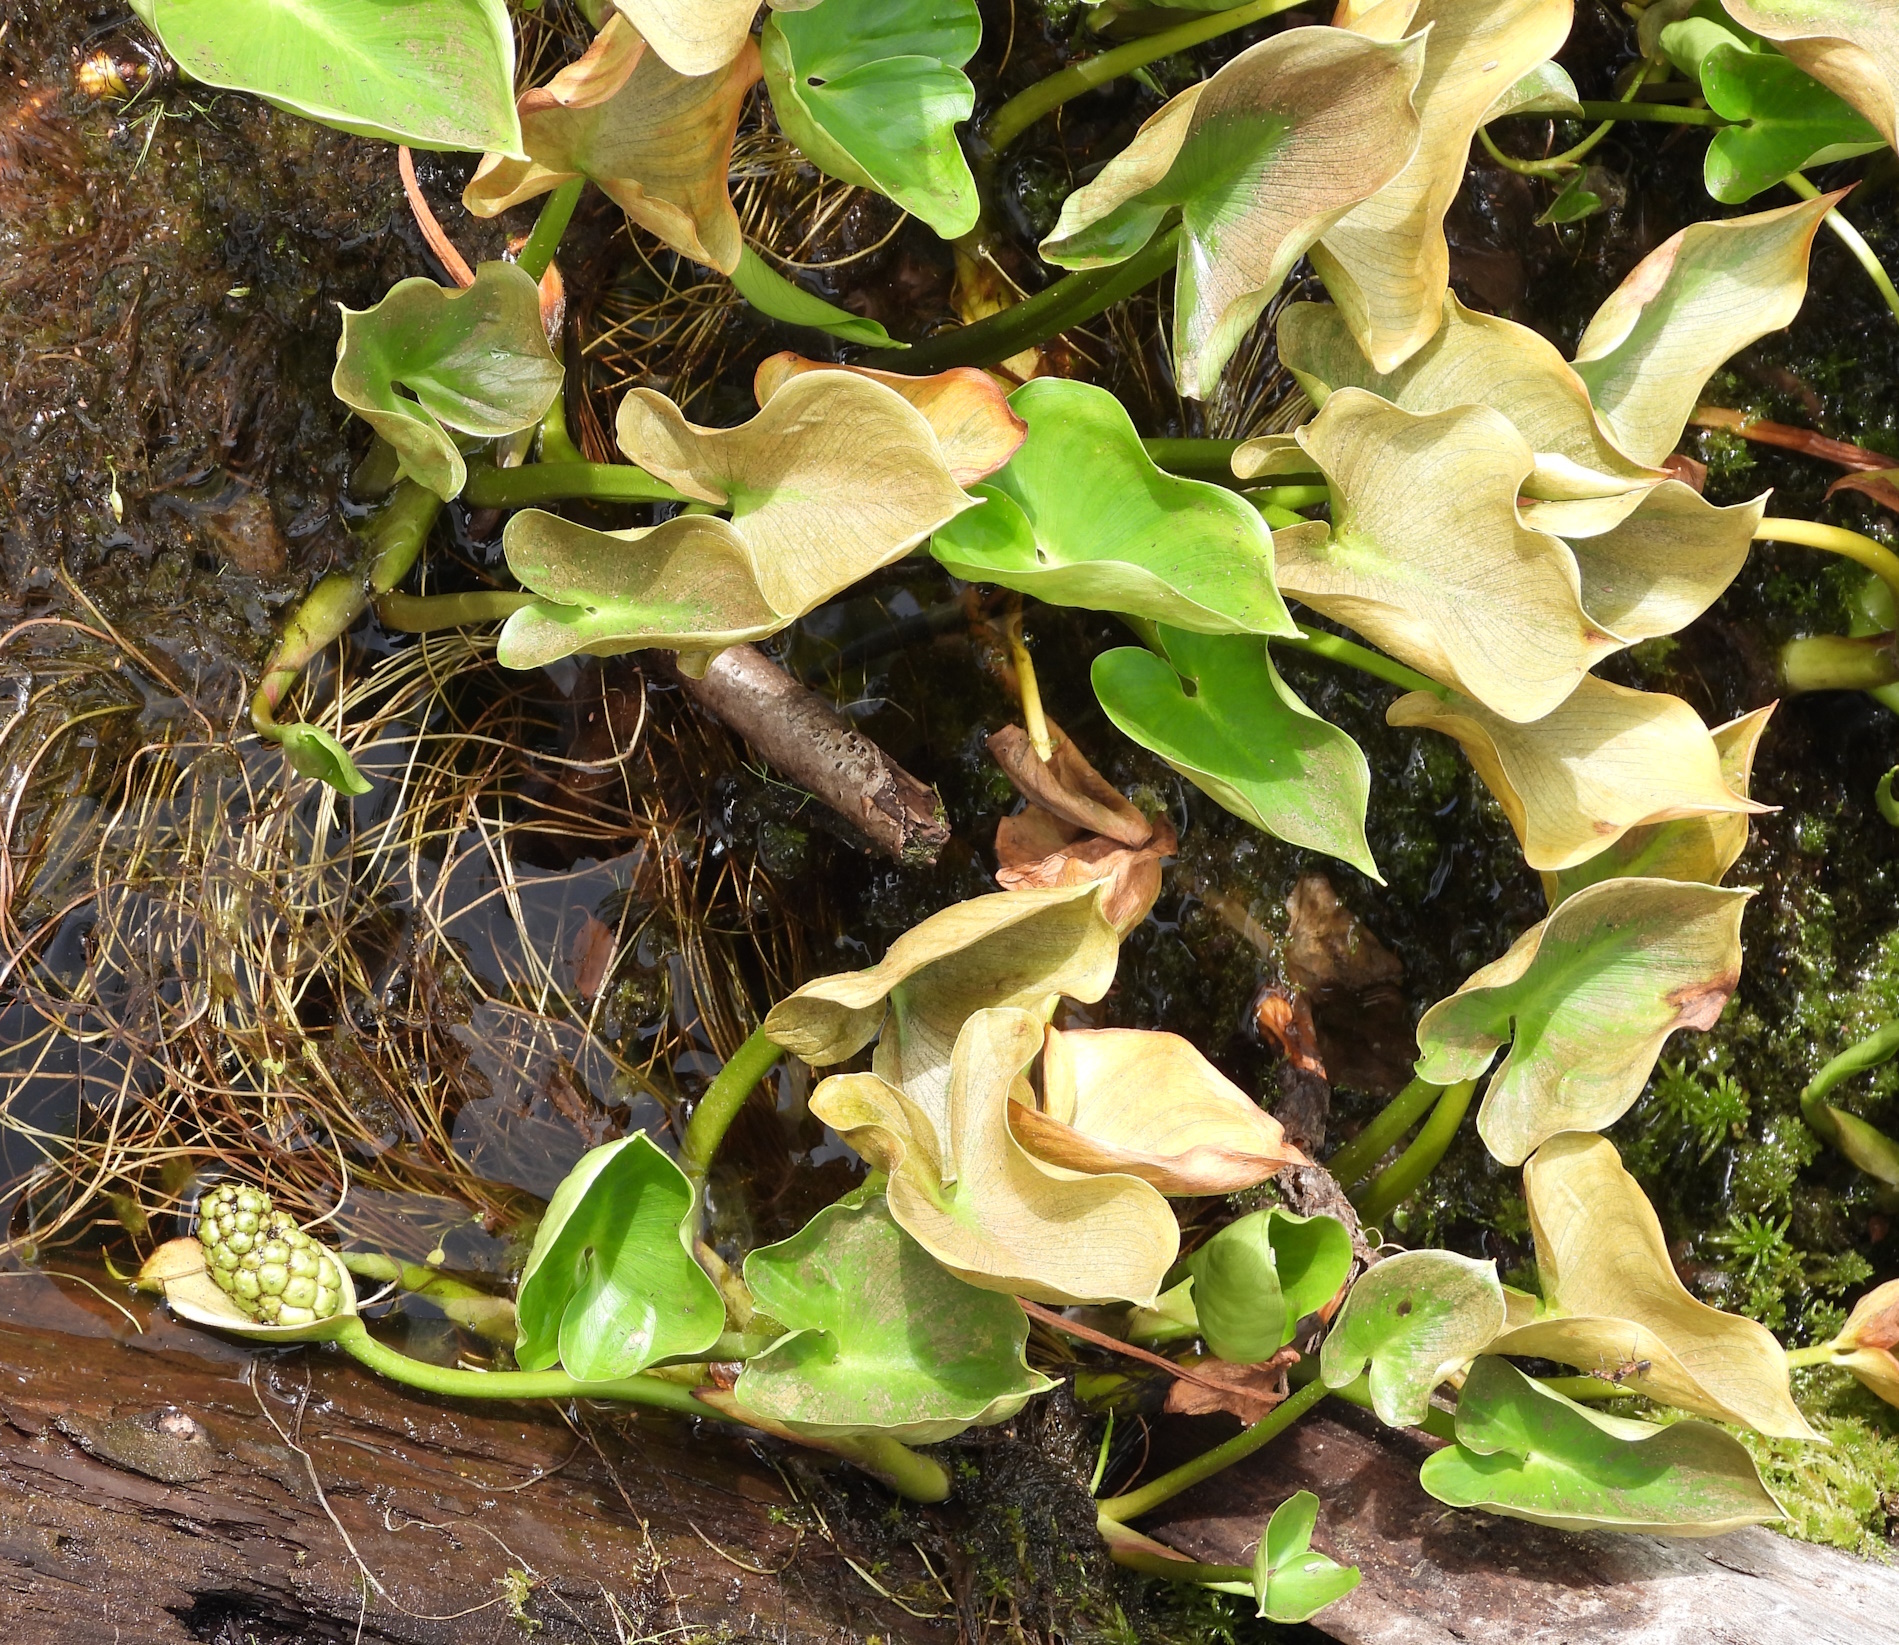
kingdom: Plantae
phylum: Tracheophyta
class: Liliopsida
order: Alismatales
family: Araceae
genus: Calla
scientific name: Calla palustris
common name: Bog arum
